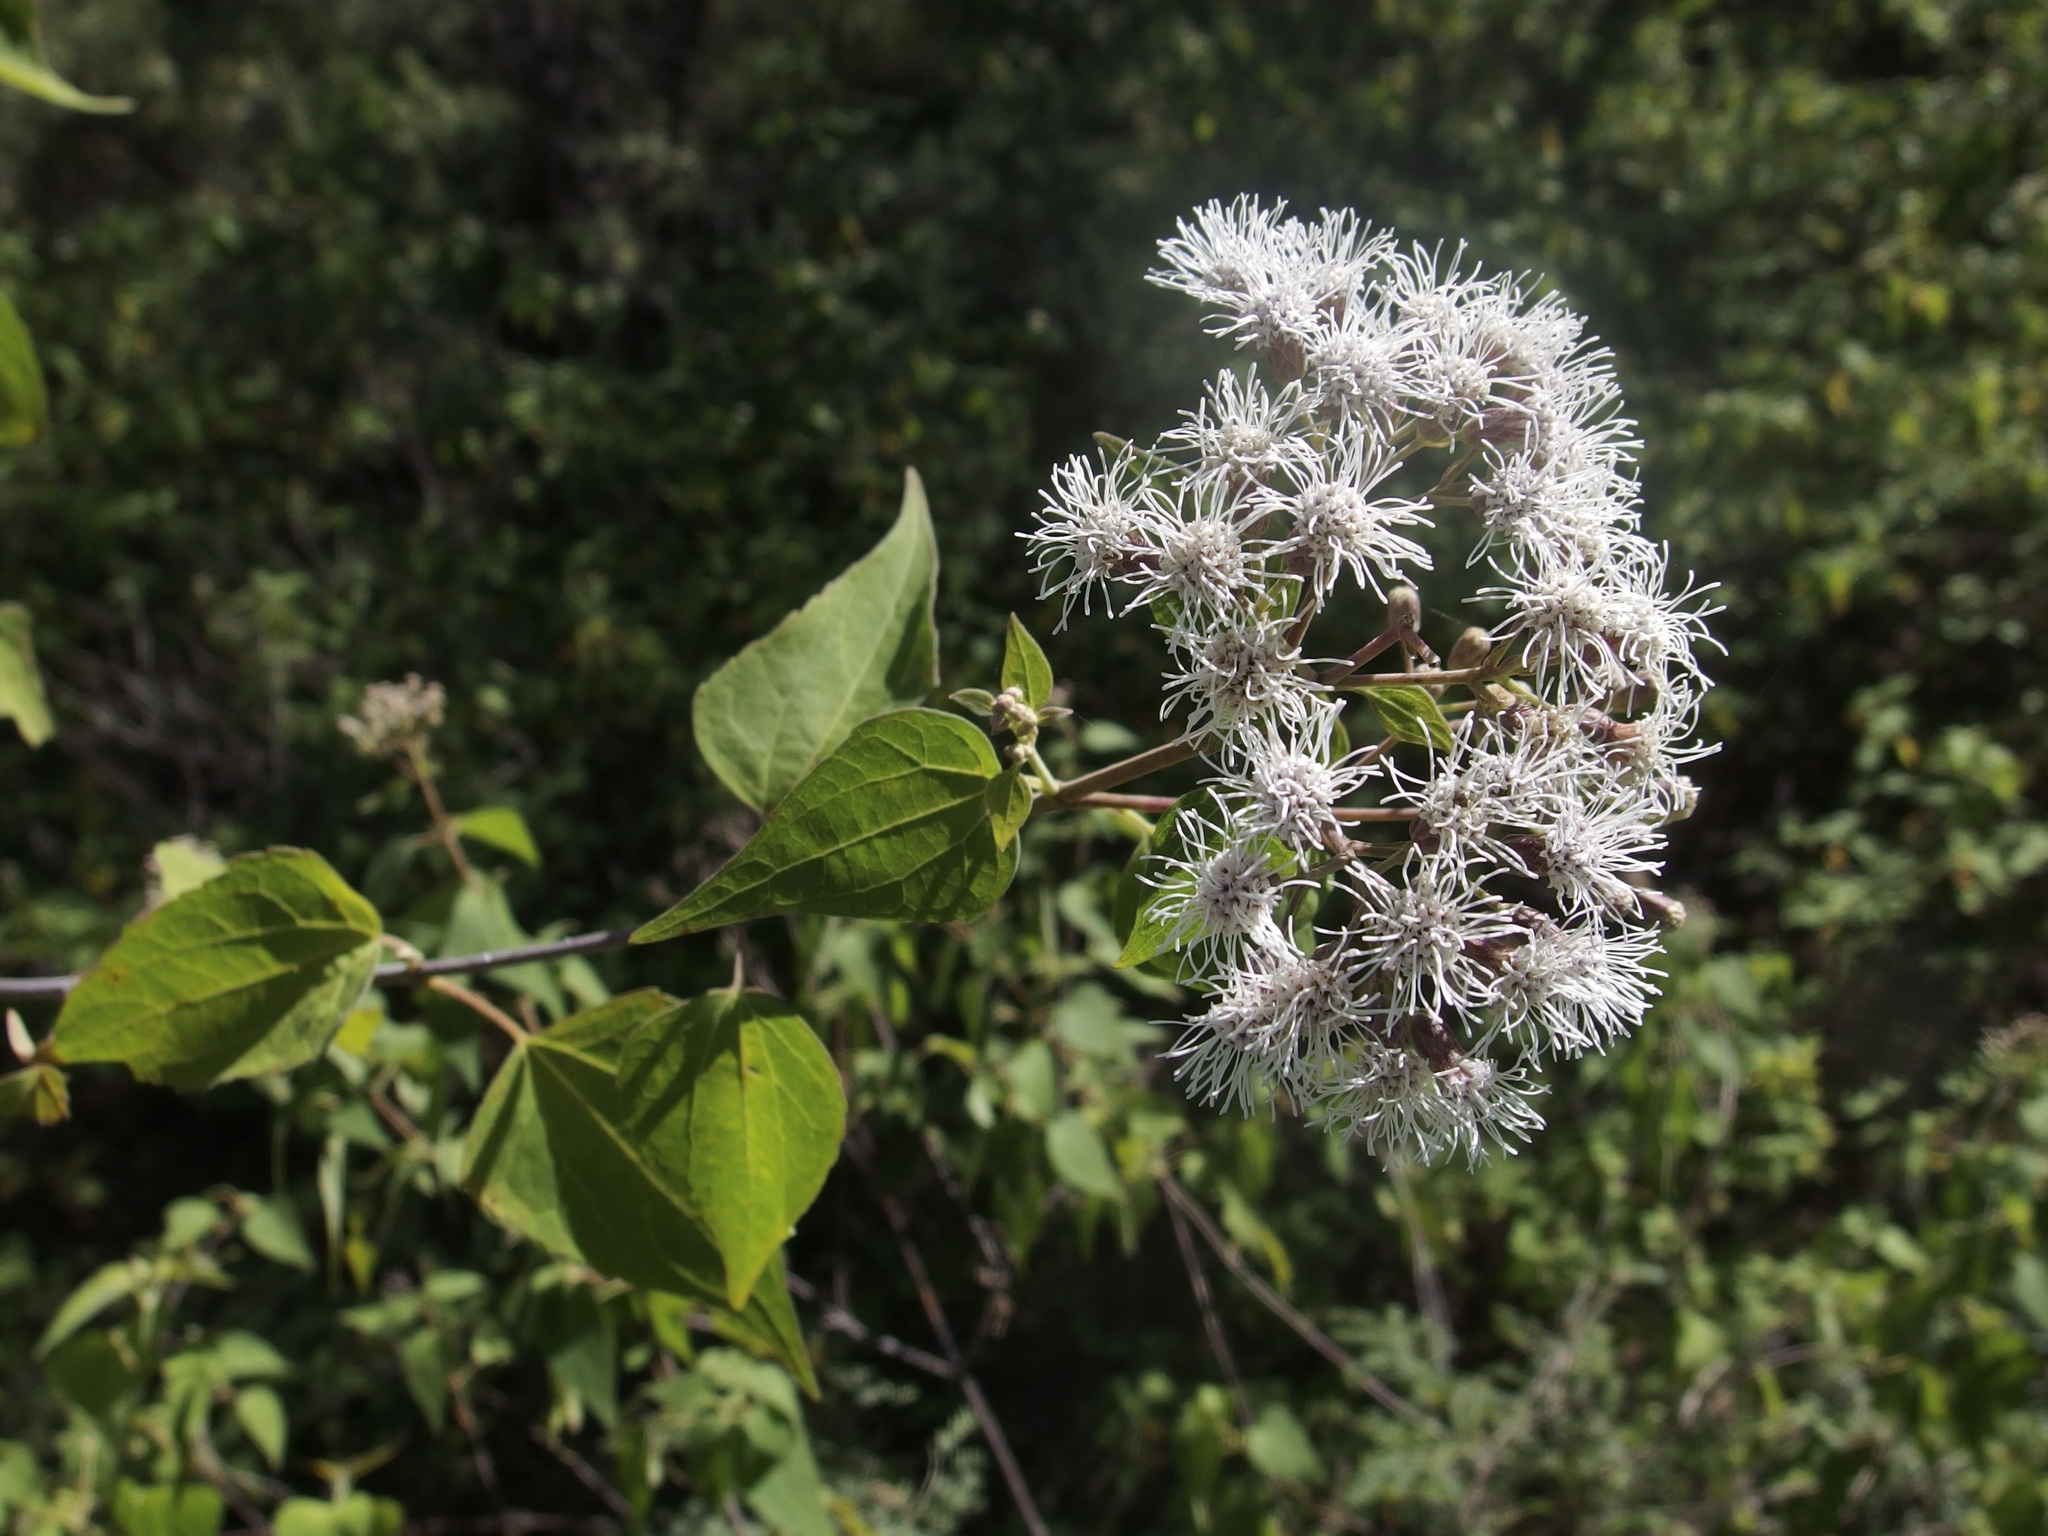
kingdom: Plantae
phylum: Tracheophyta
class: Magnoliopsida
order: Asterales
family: Asteraceae
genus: Chromolaena
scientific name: Chromolaena collina
